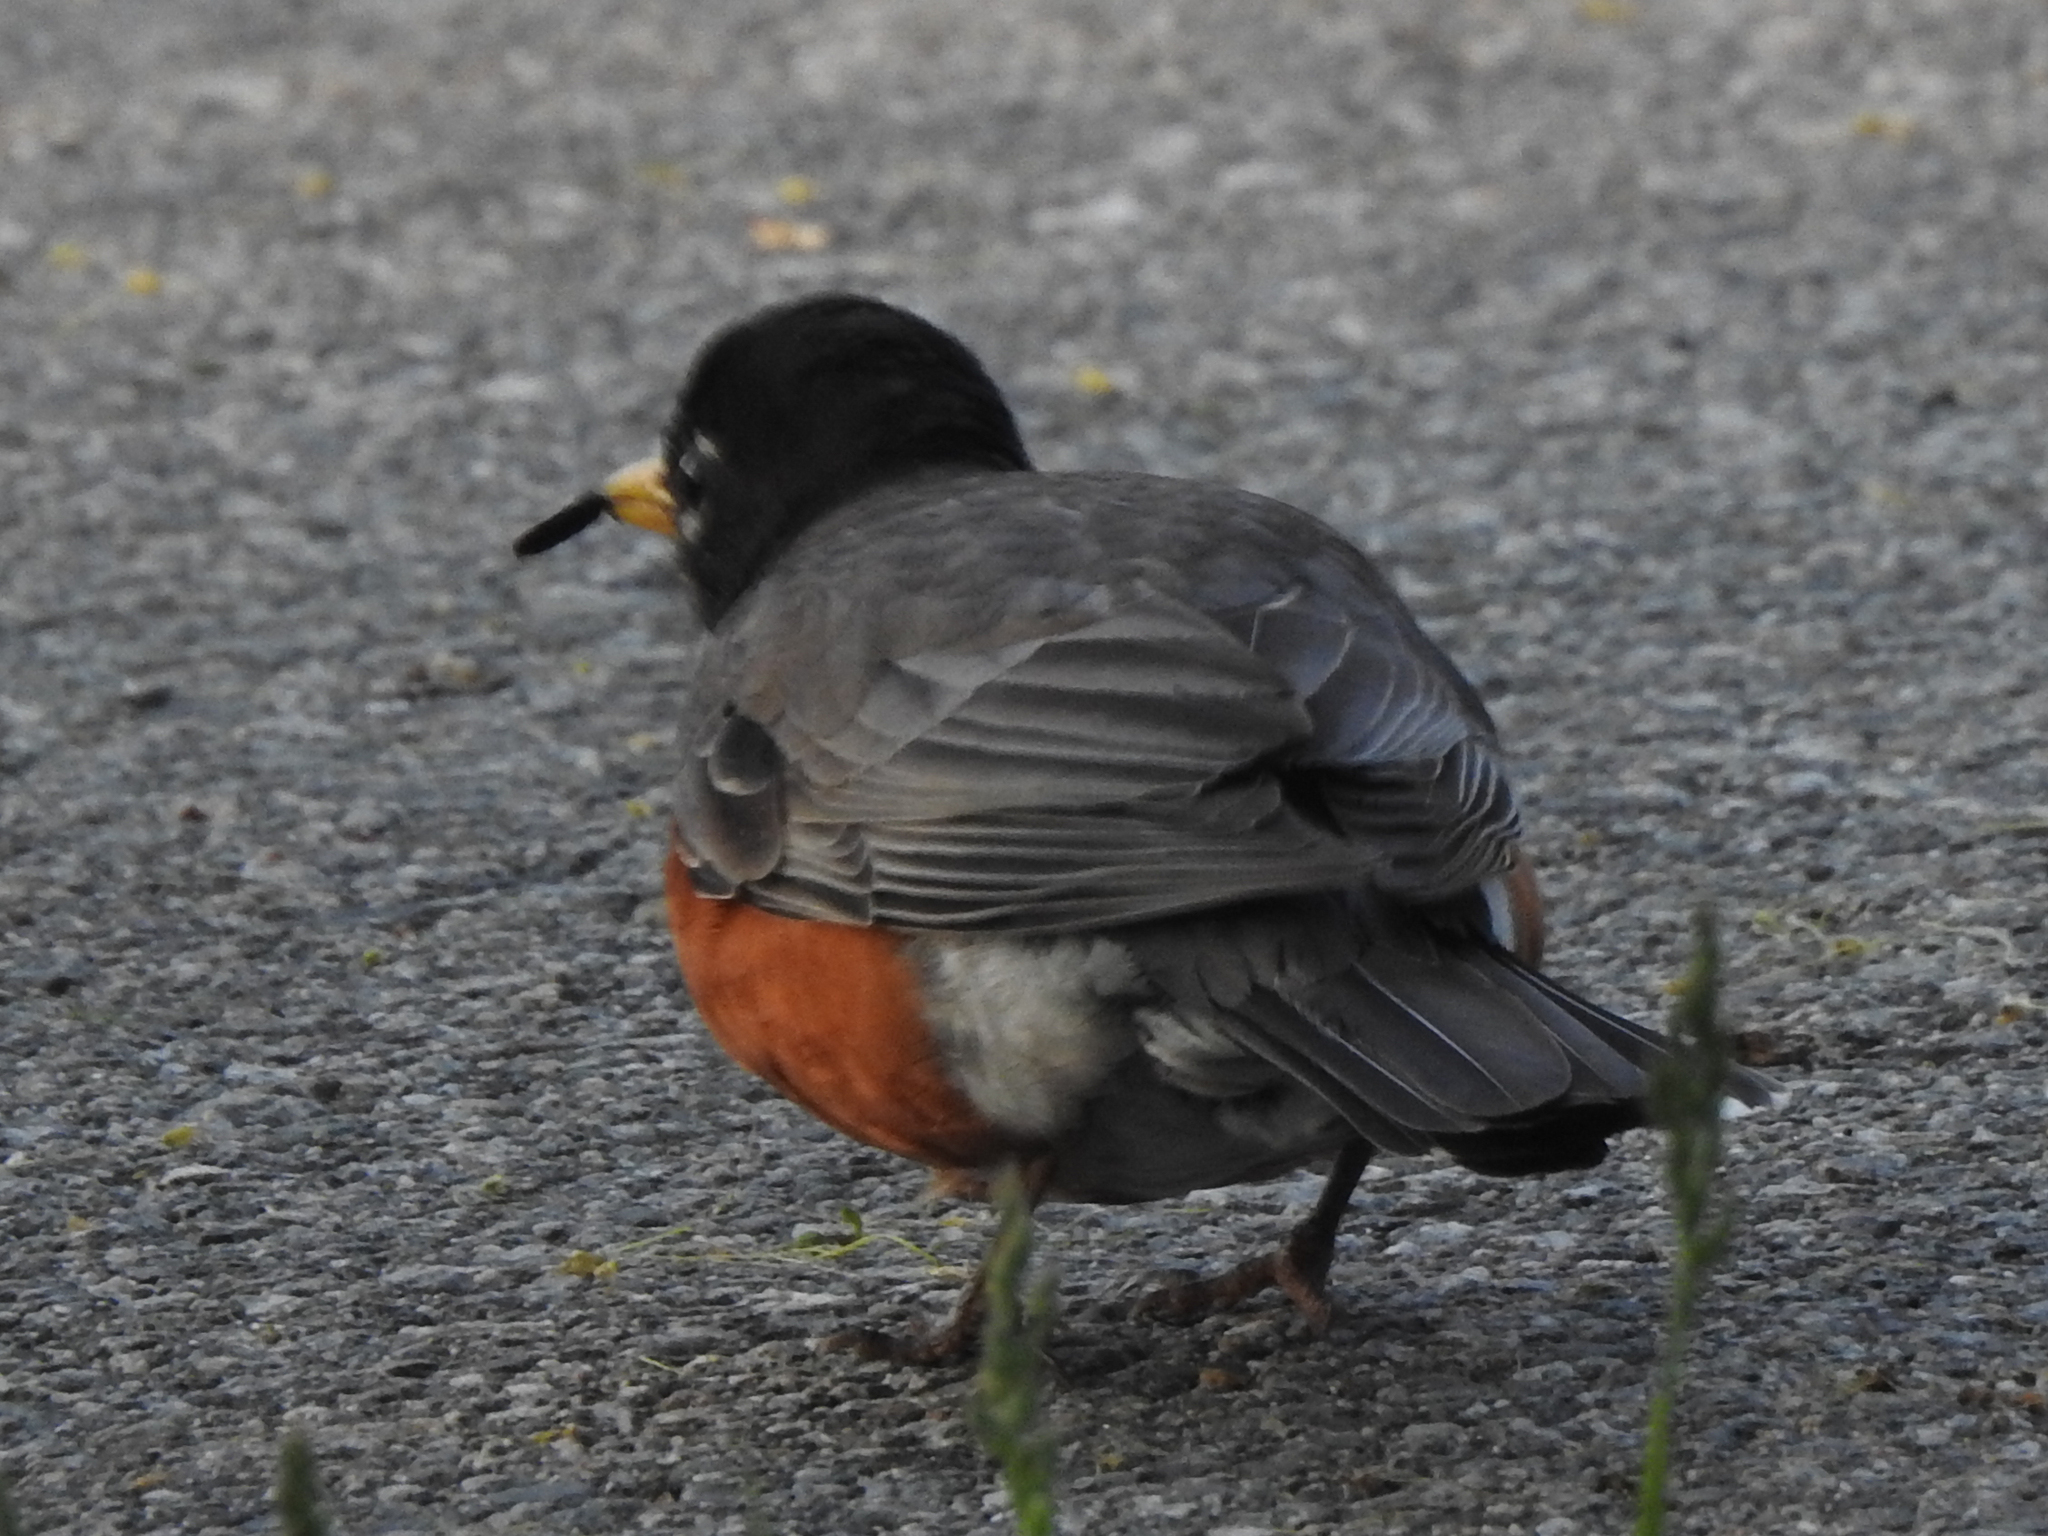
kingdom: Animalia
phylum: Chordata
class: Aves
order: Passeriformes
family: Turdidae
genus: Turdus
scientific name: Turdus migratorius
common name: American robin
